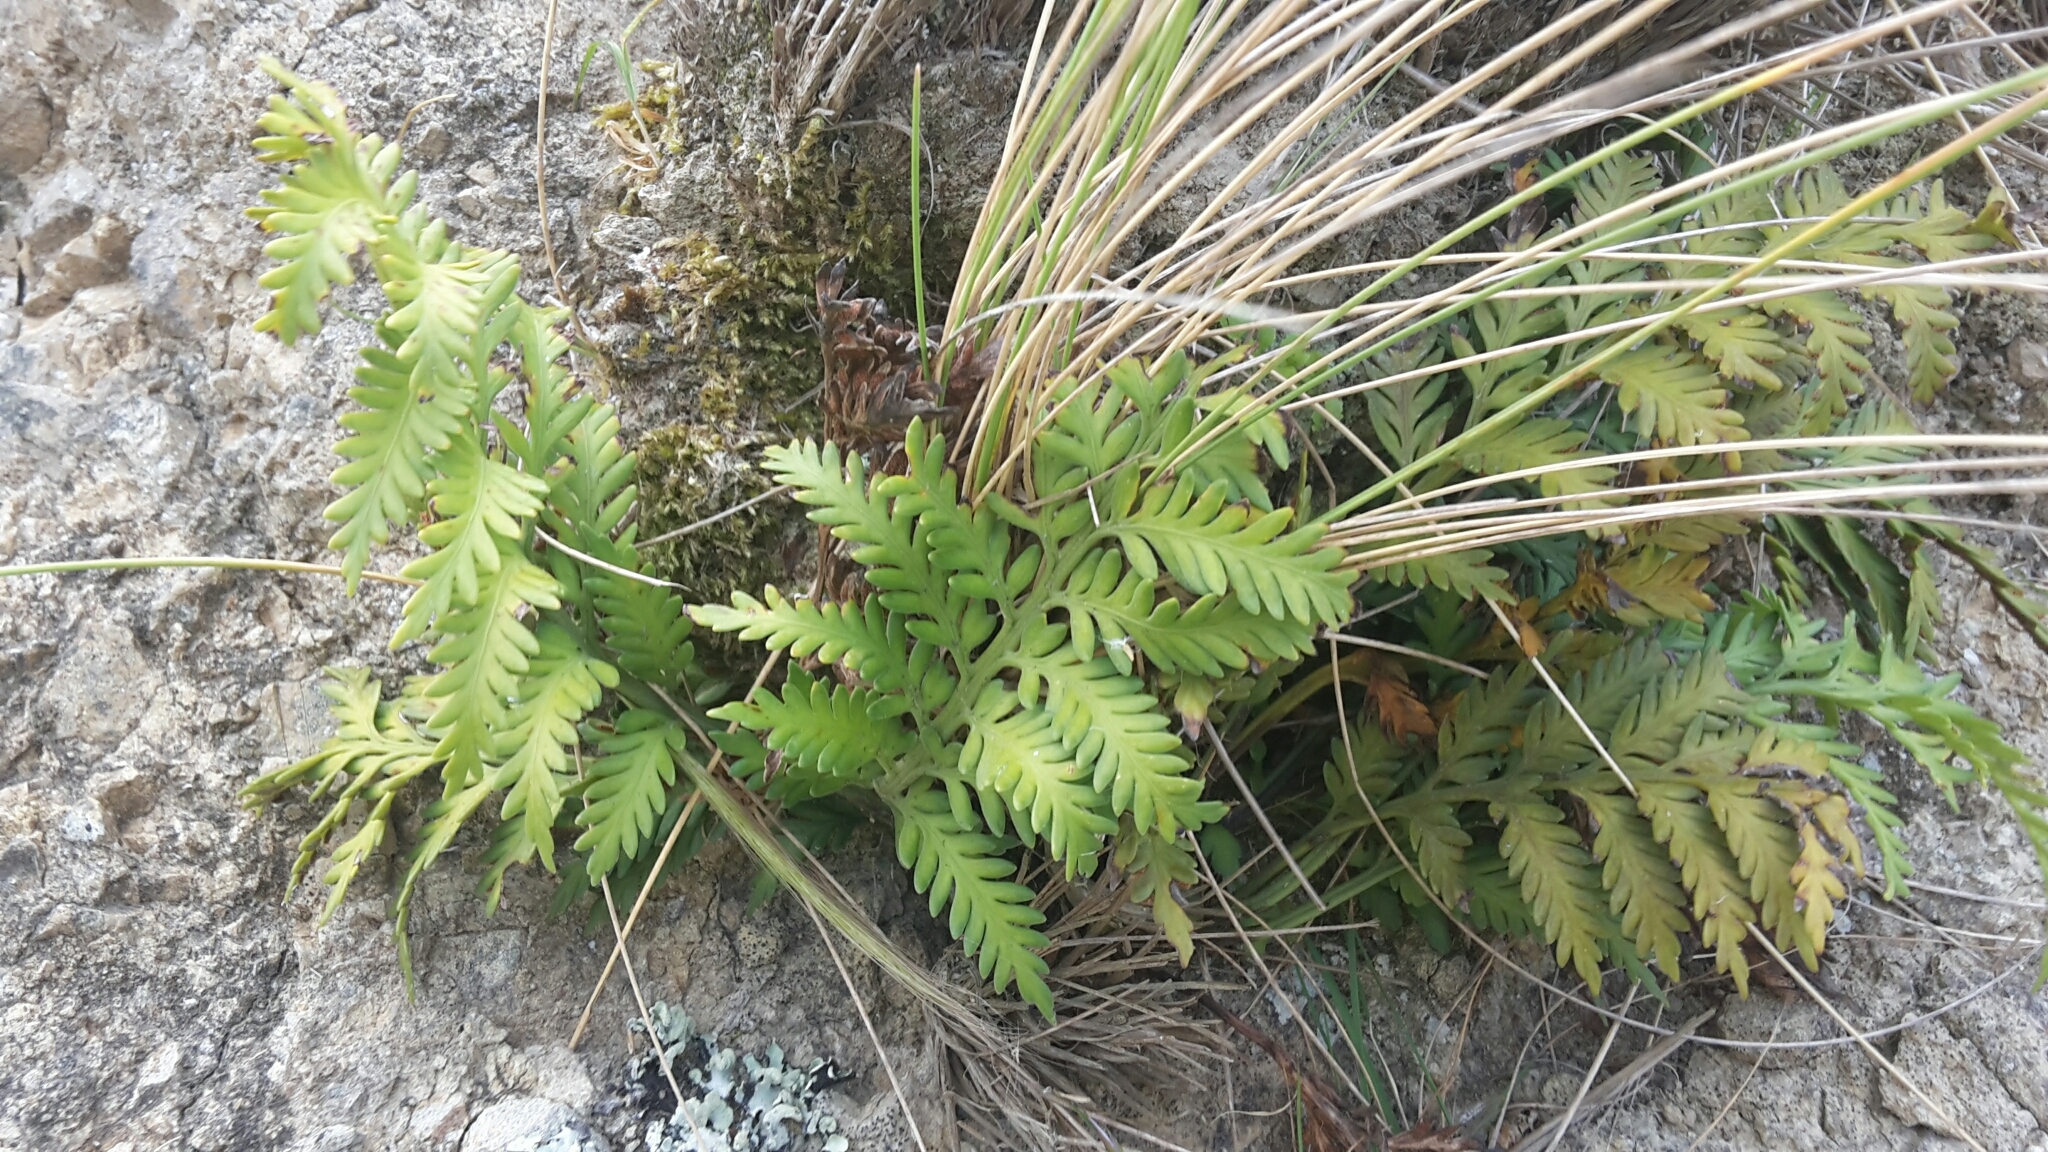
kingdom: Plantae
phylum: Tracheophyta
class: Polypodiopsida
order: Polypodiales
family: Aspleniaceae
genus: Asplenium
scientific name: Asplenium appendiculatum
